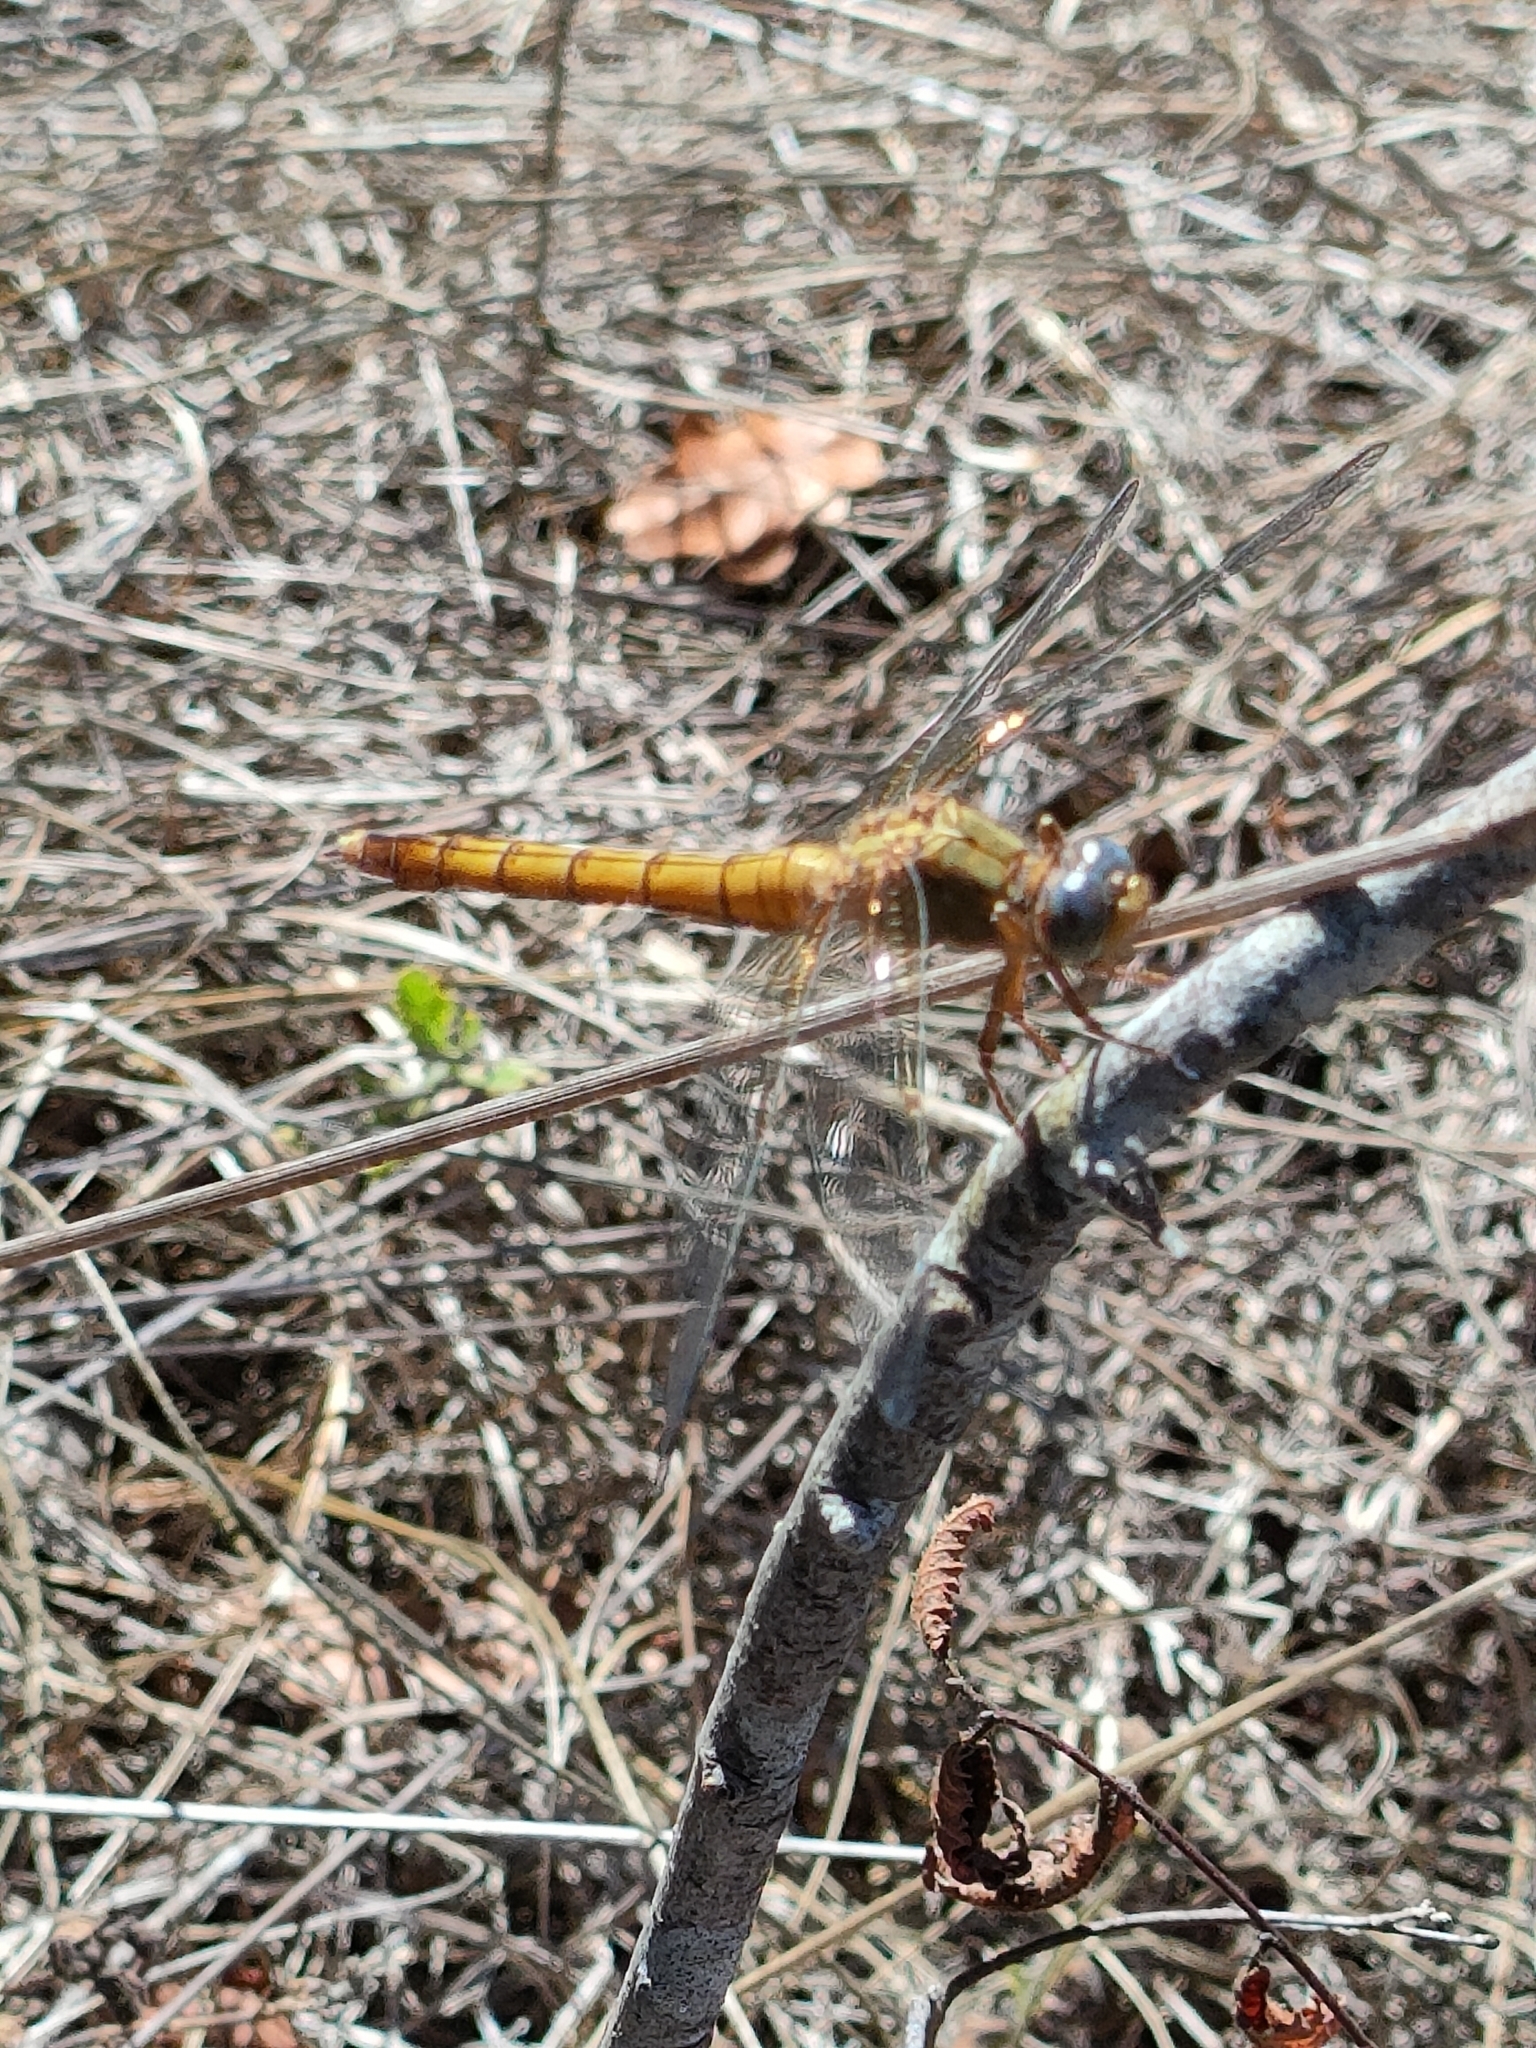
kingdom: Animalia
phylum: Arthropoda
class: Insecta
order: Odonata
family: Libellulidae
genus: Orthetrum
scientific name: Orthetrum coerulescens
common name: Keeled skimmer
